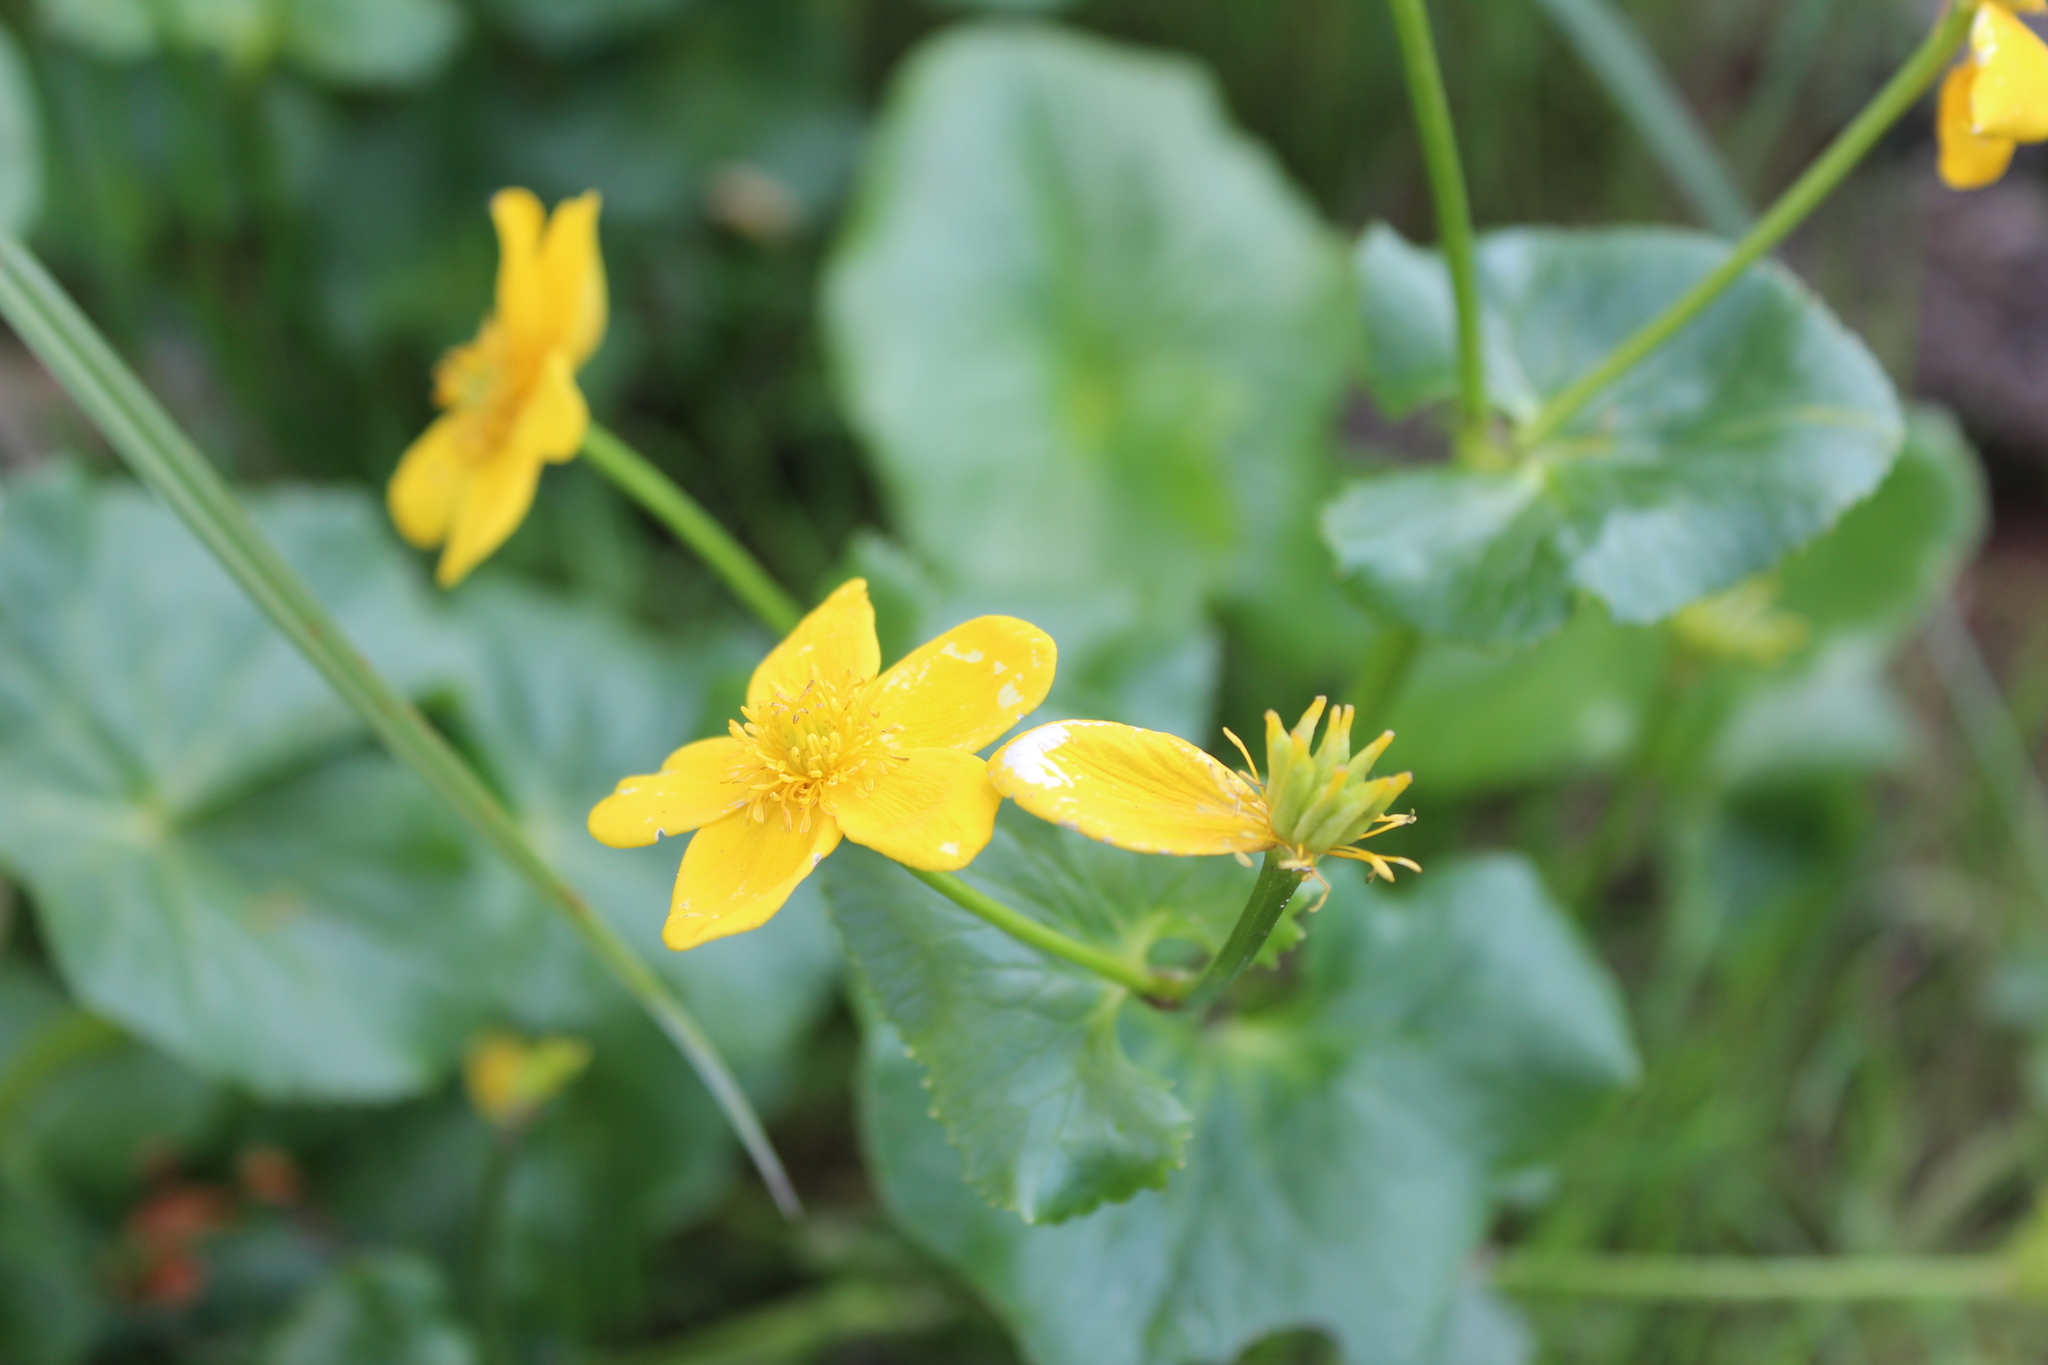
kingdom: Plantae
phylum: Tracheophyta
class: Magnoliopsida
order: Ranunculales
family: Ranunculaceae
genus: Caltha
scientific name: Caltha palustris
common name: Marsh marigold
